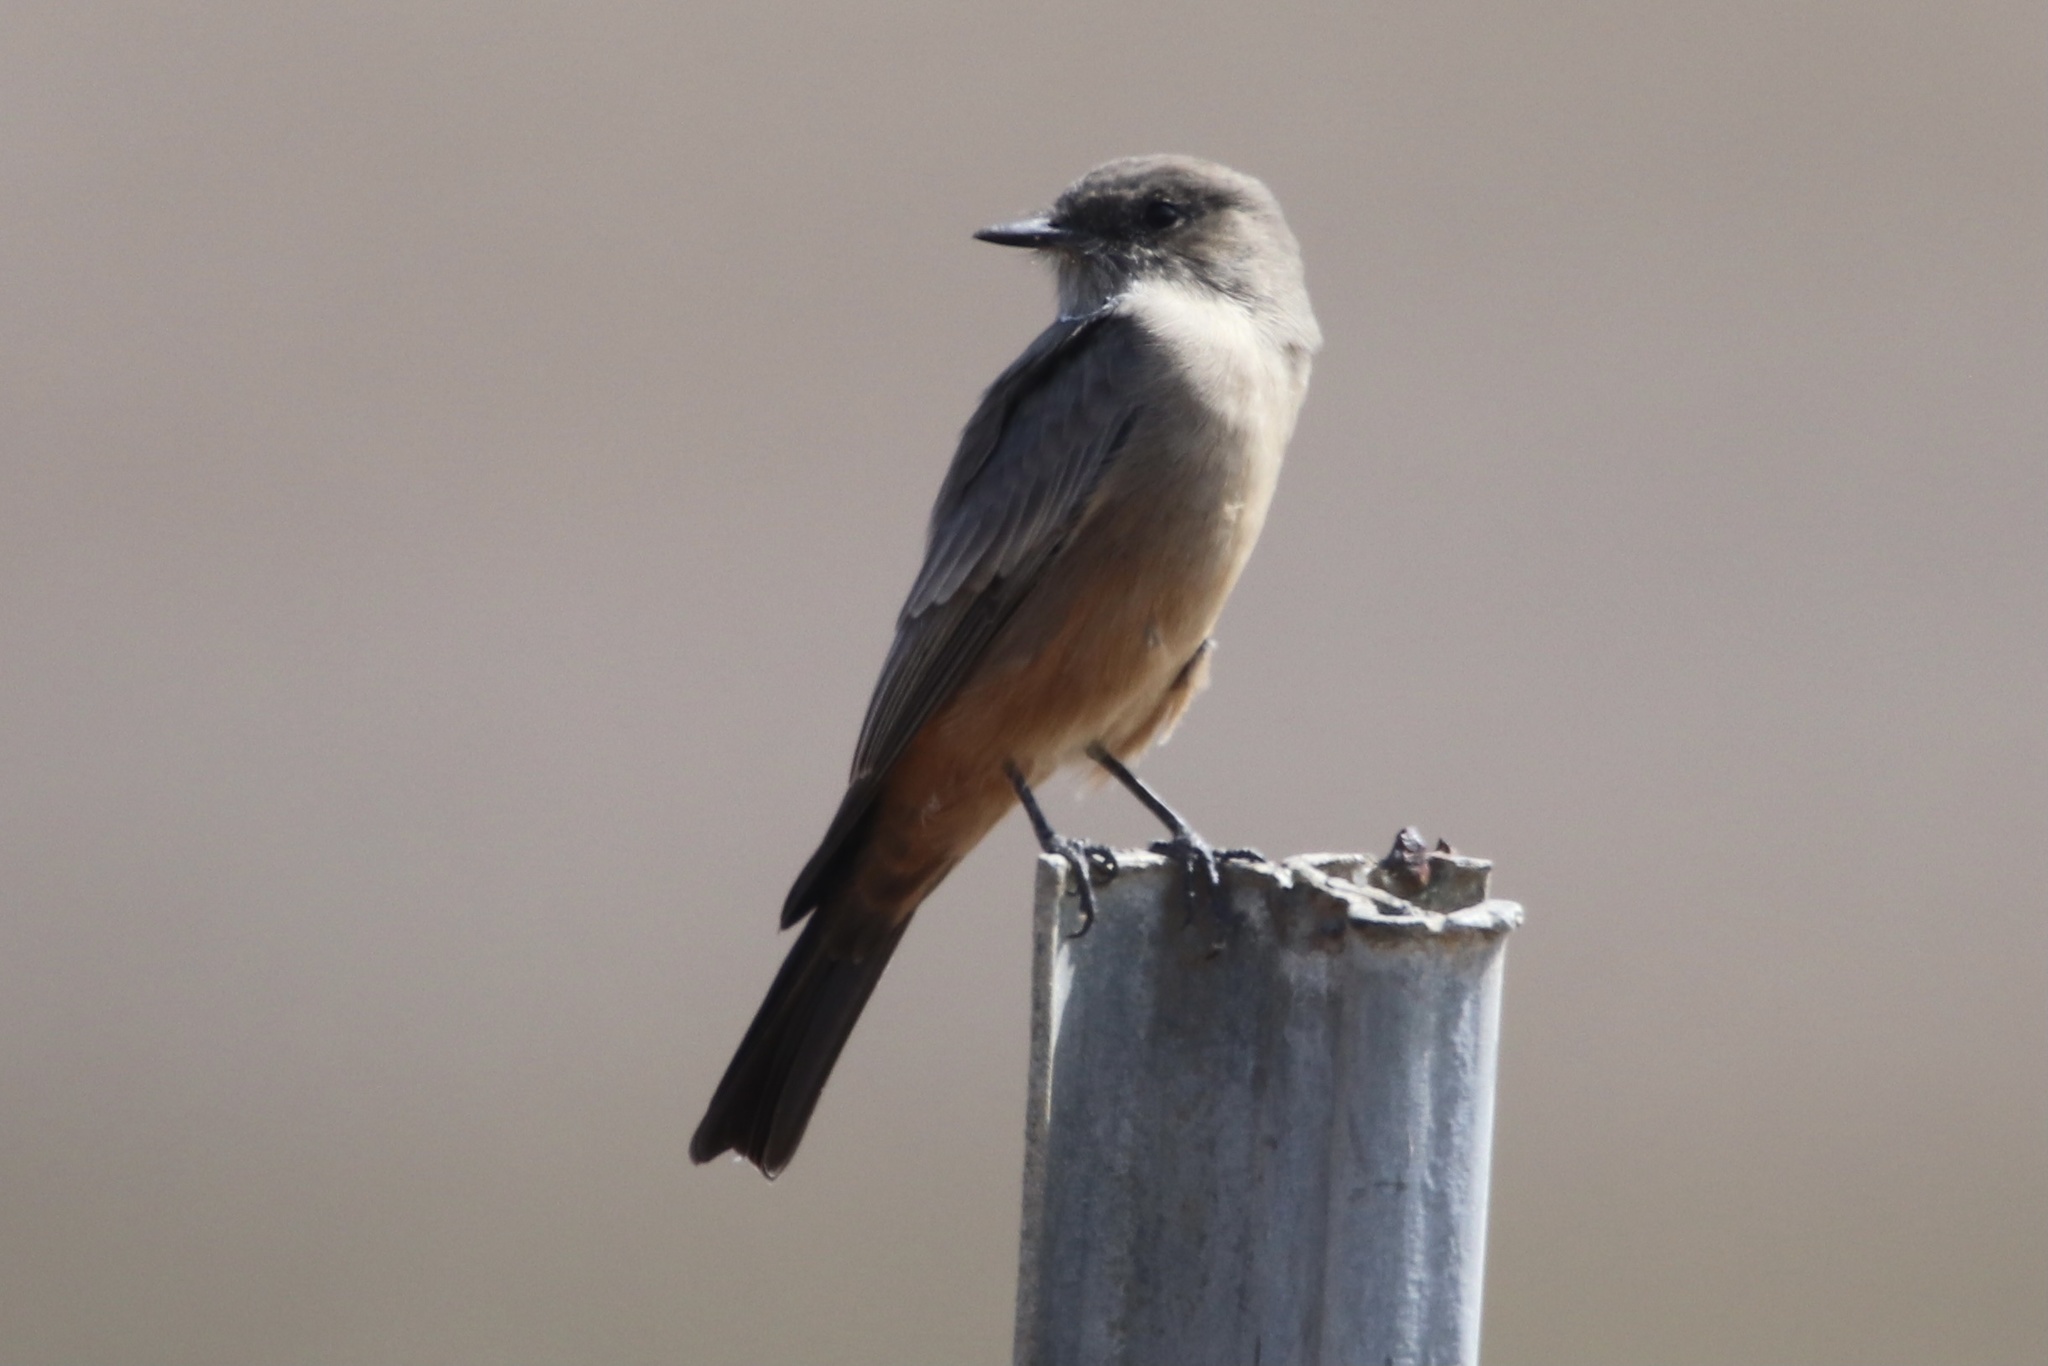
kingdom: Animalia
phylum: Chordata
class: Aves
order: Passeriformes
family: Tyrannidae
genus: Sayornis
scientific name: Sayornis saya
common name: Say's phoebe
